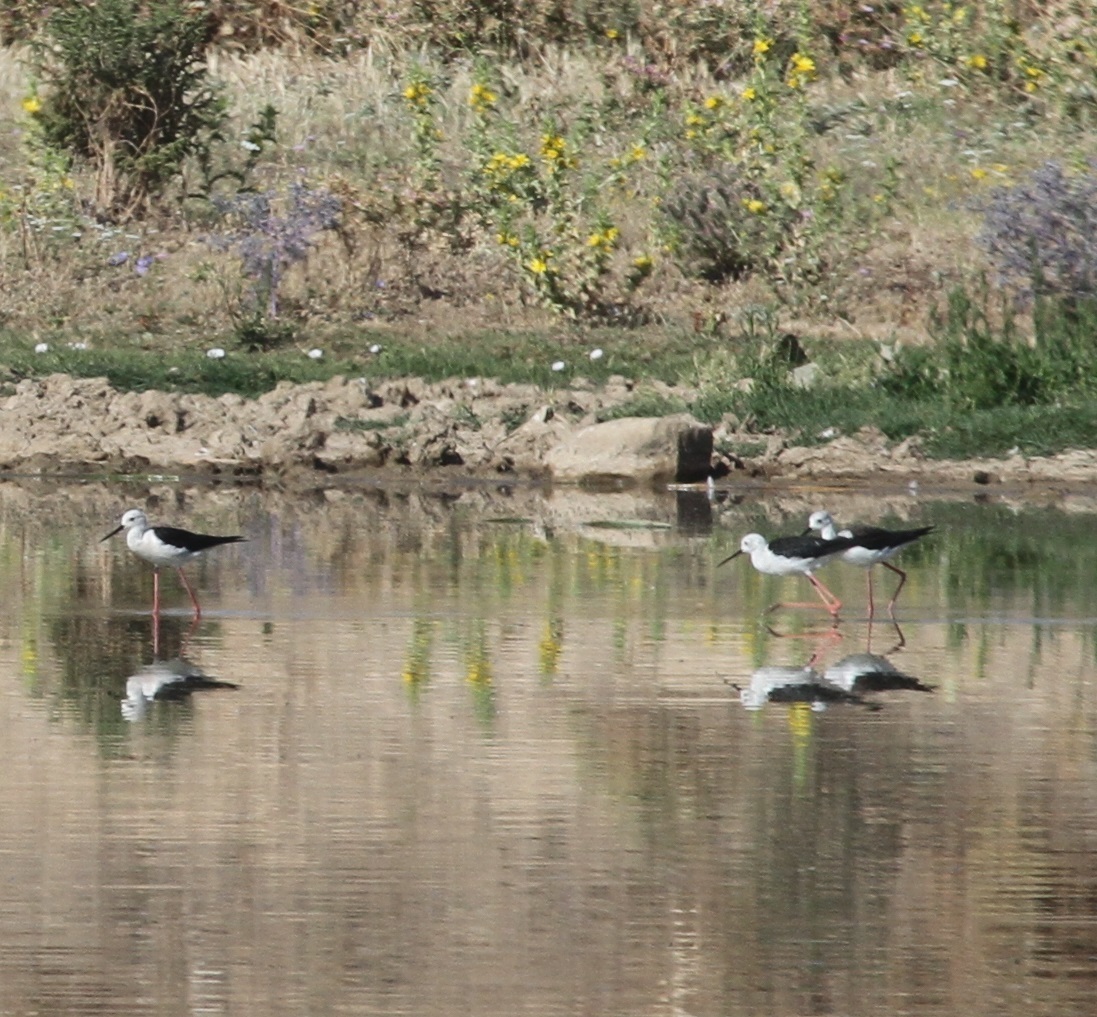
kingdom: Animalia
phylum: Chordata
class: Aves
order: Charadriiformes
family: Recurvirostridae
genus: Himantopus
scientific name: Himantopus himantopus
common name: Black-winged stilt
